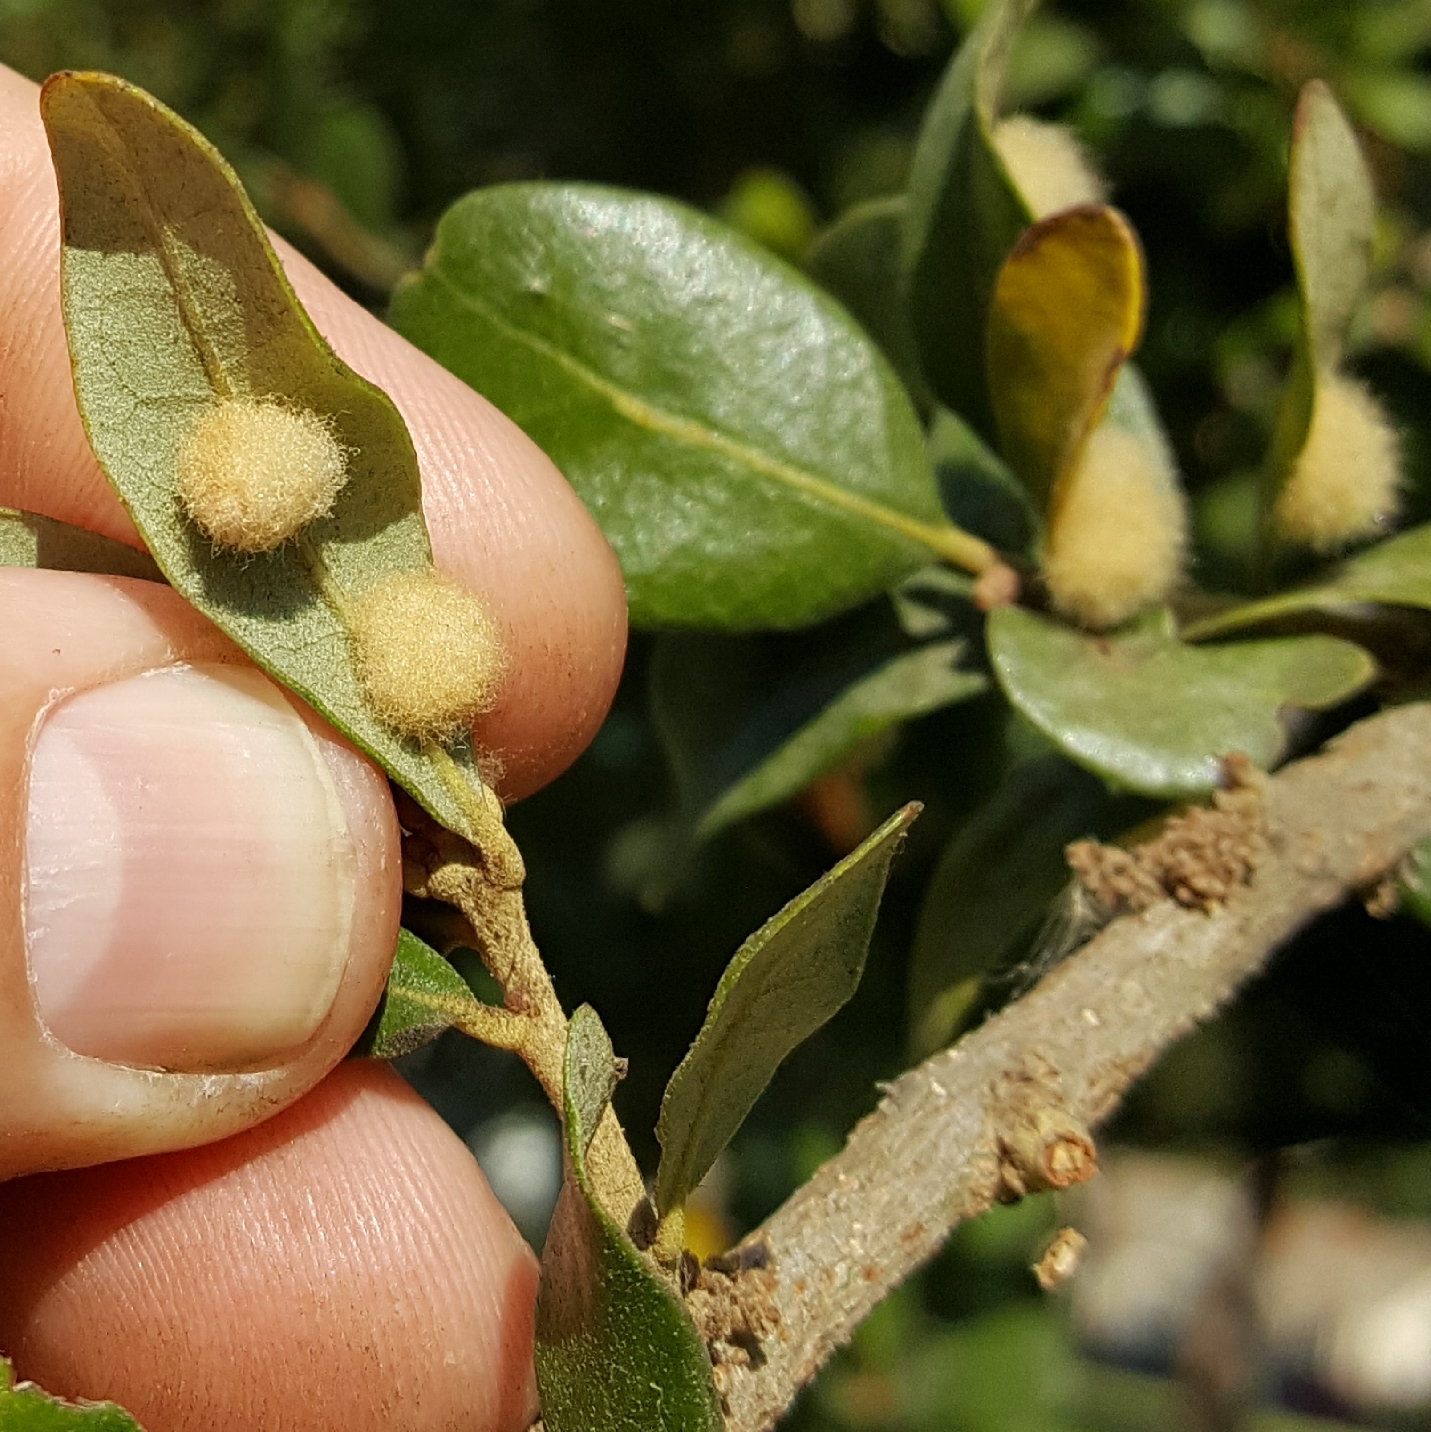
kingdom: Animalia
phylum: Arthropoda
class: Insecta
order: Hymenoptera
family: Cynipidae
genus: Andricus
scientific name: Andricus Druon quercuslanigerum
